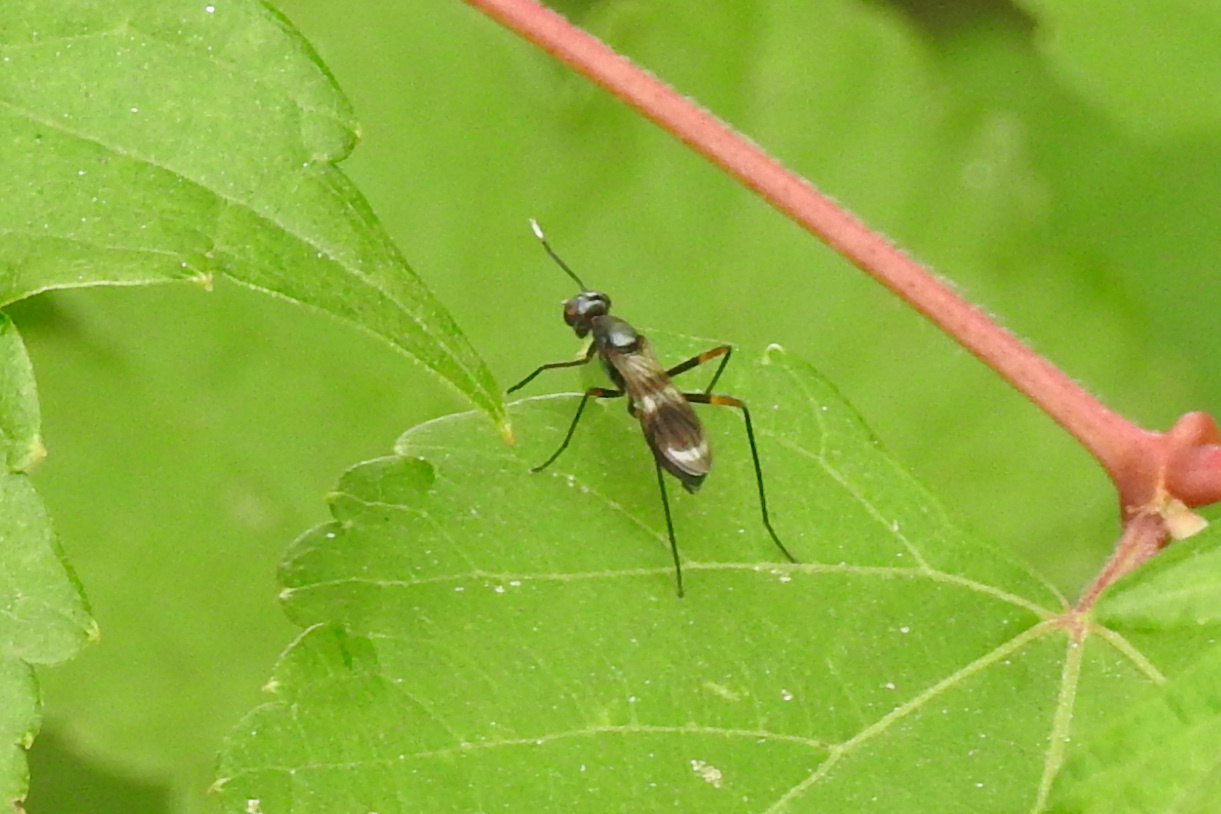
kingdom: Animalia
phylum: Arthropoda
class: Insecta
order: Diptera
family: Micropezidae
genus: Taeniaptera
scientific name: Taeniaptera trivittata
